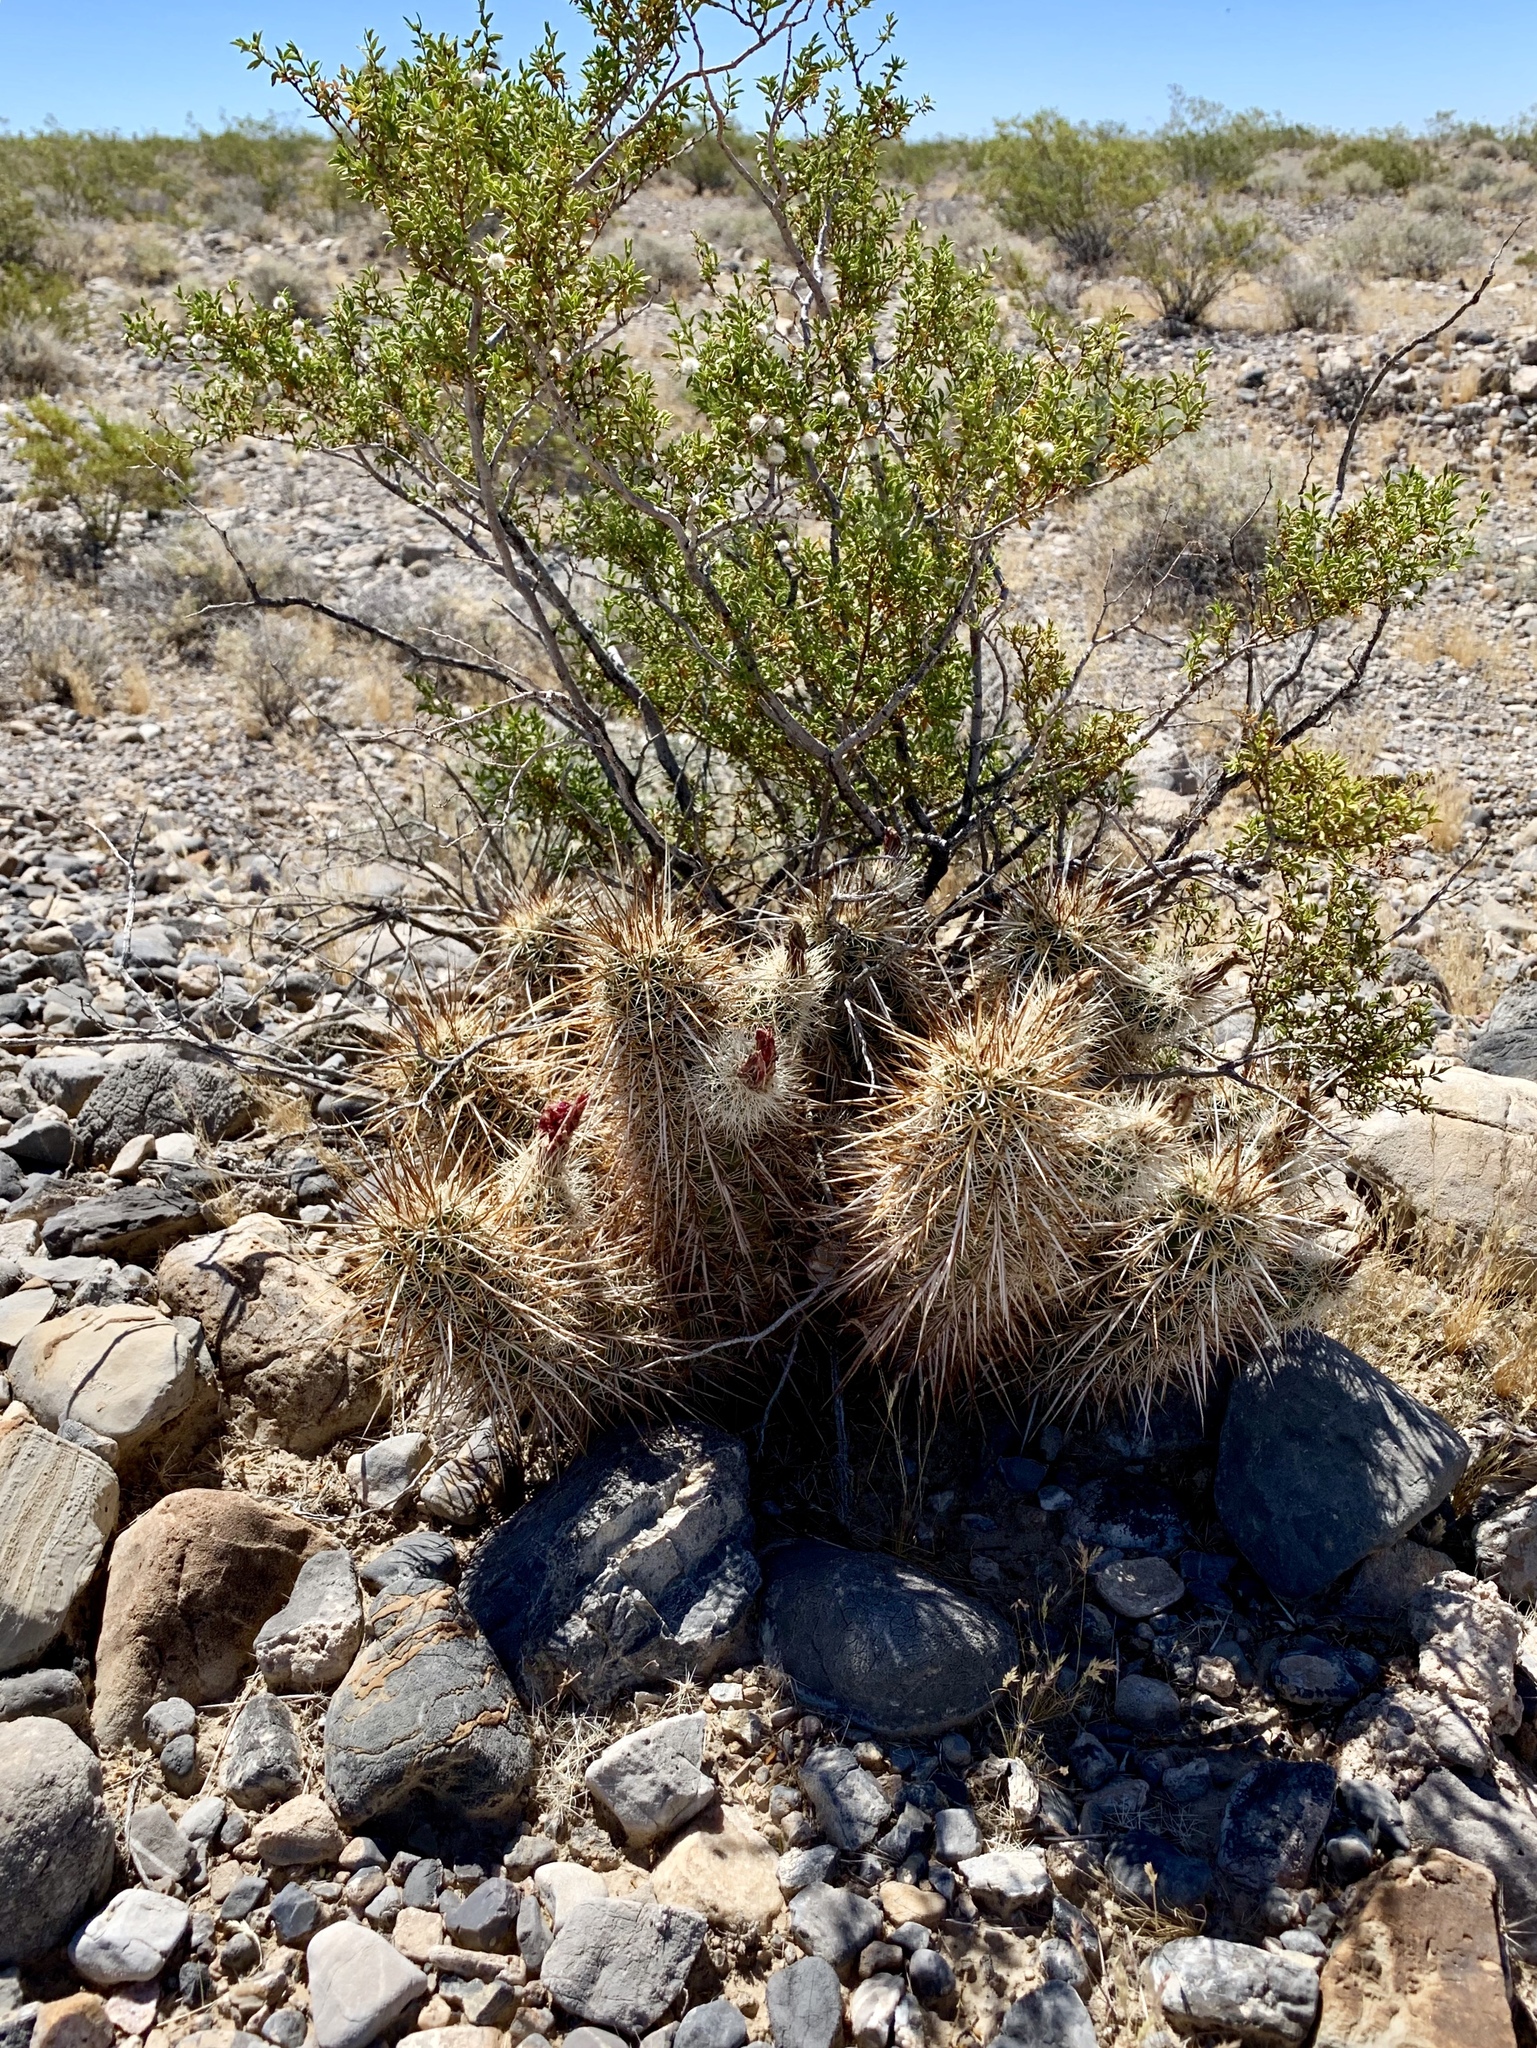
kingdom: Plantae
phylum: Tracheophyta
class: Magnoliopsida
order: Caryophyllales
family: Cactaceae
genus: Echinocereus
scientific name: Echinocereus engelmannii
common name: Engelmann's hedgehog cactus
